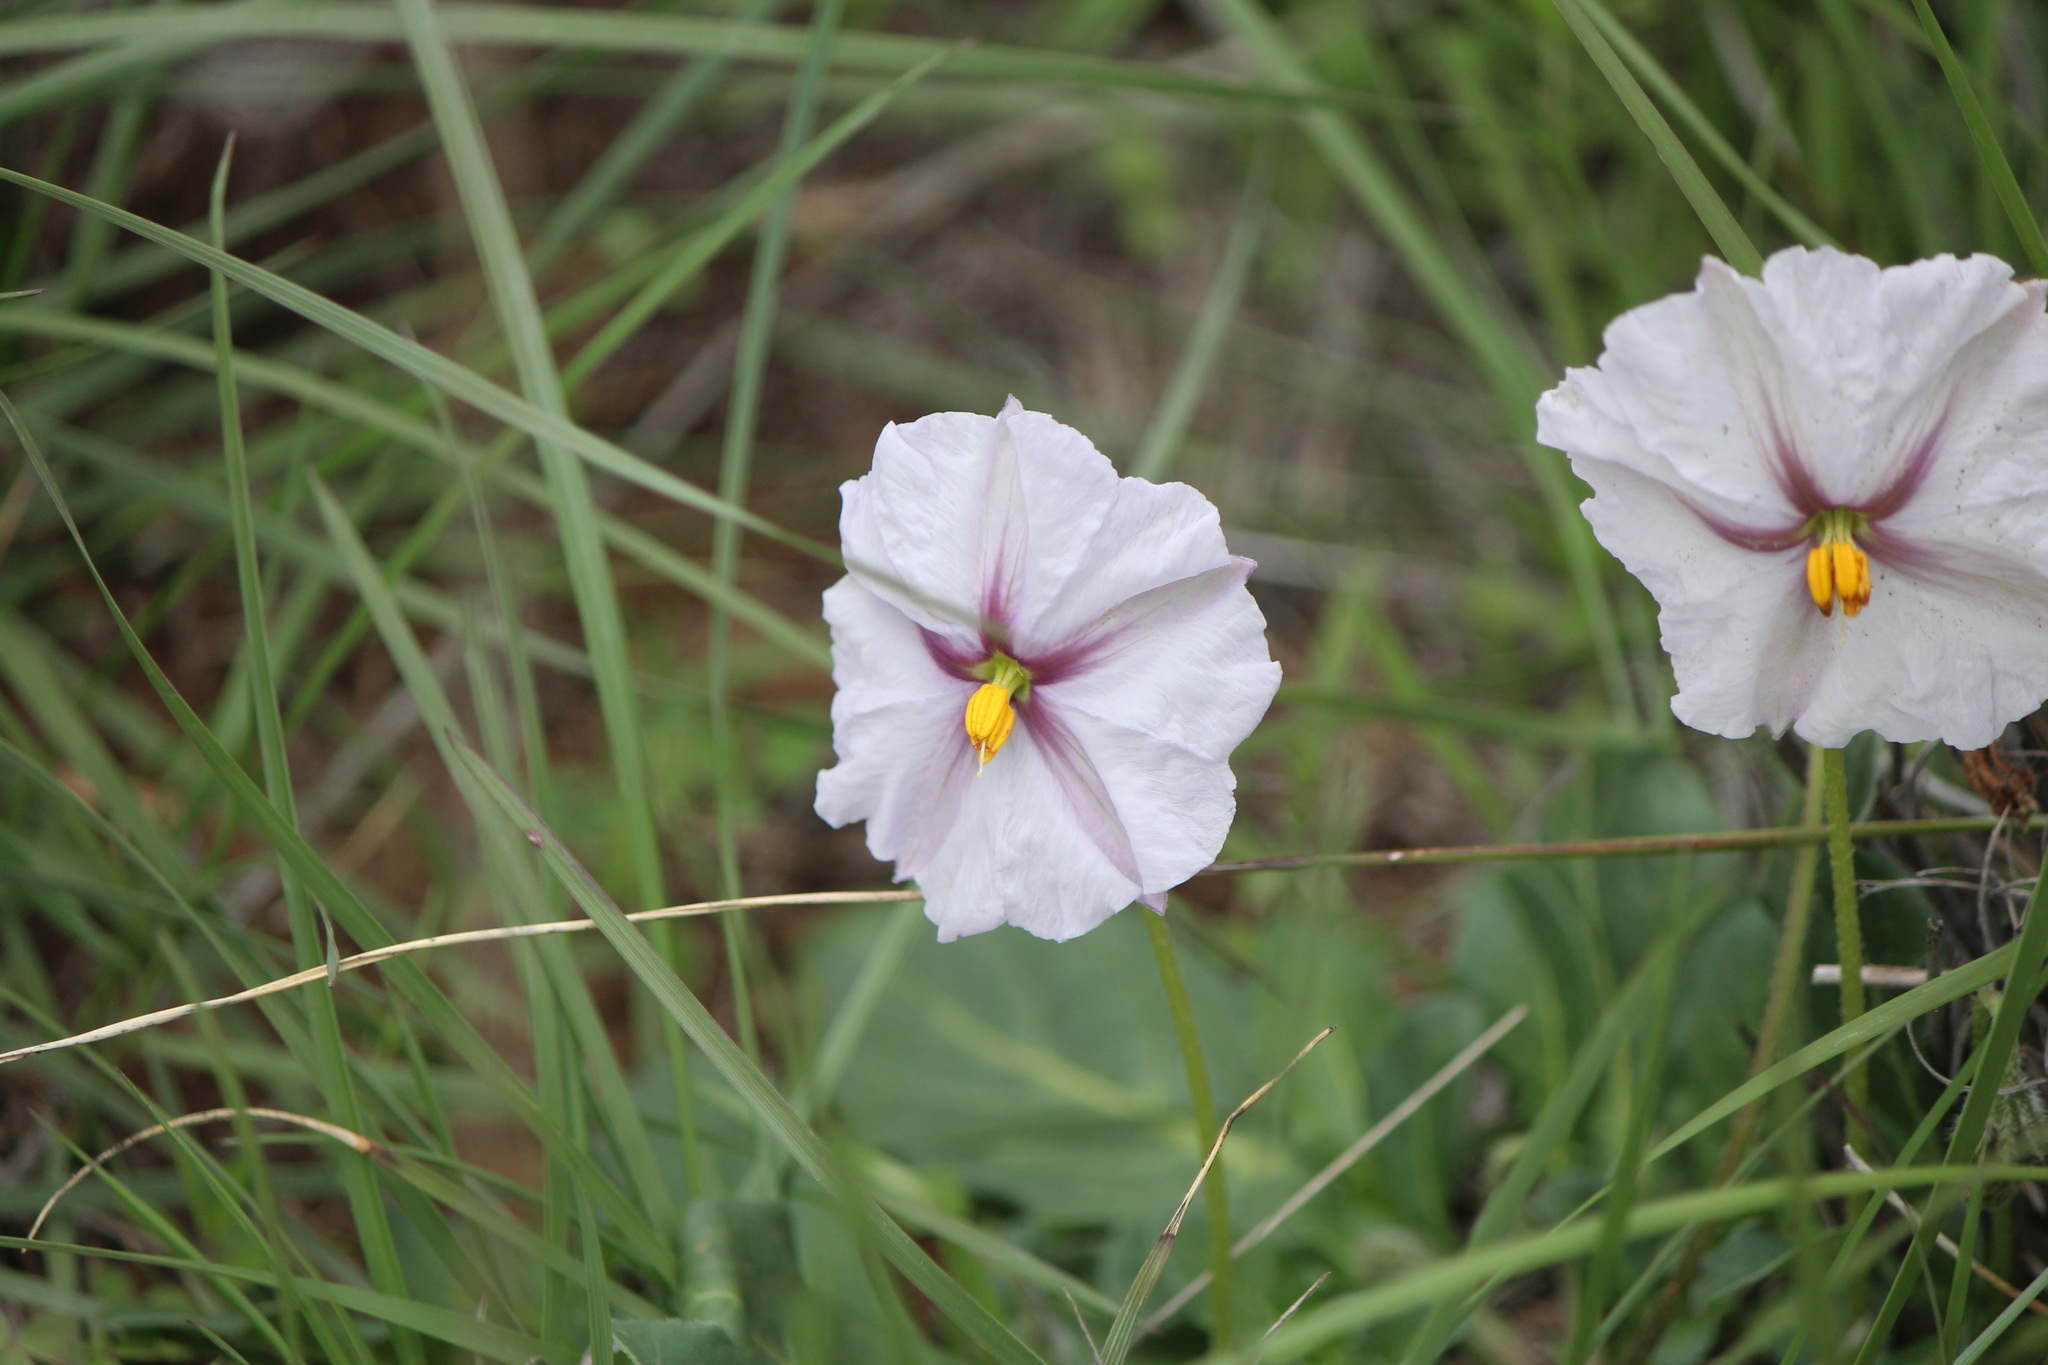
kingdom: Plantae
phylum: Tracheophyta
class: Magnoliopsida
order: Solanales
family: Solanaceae
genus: Lycianthes
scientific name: Lycianthes peduncularis
